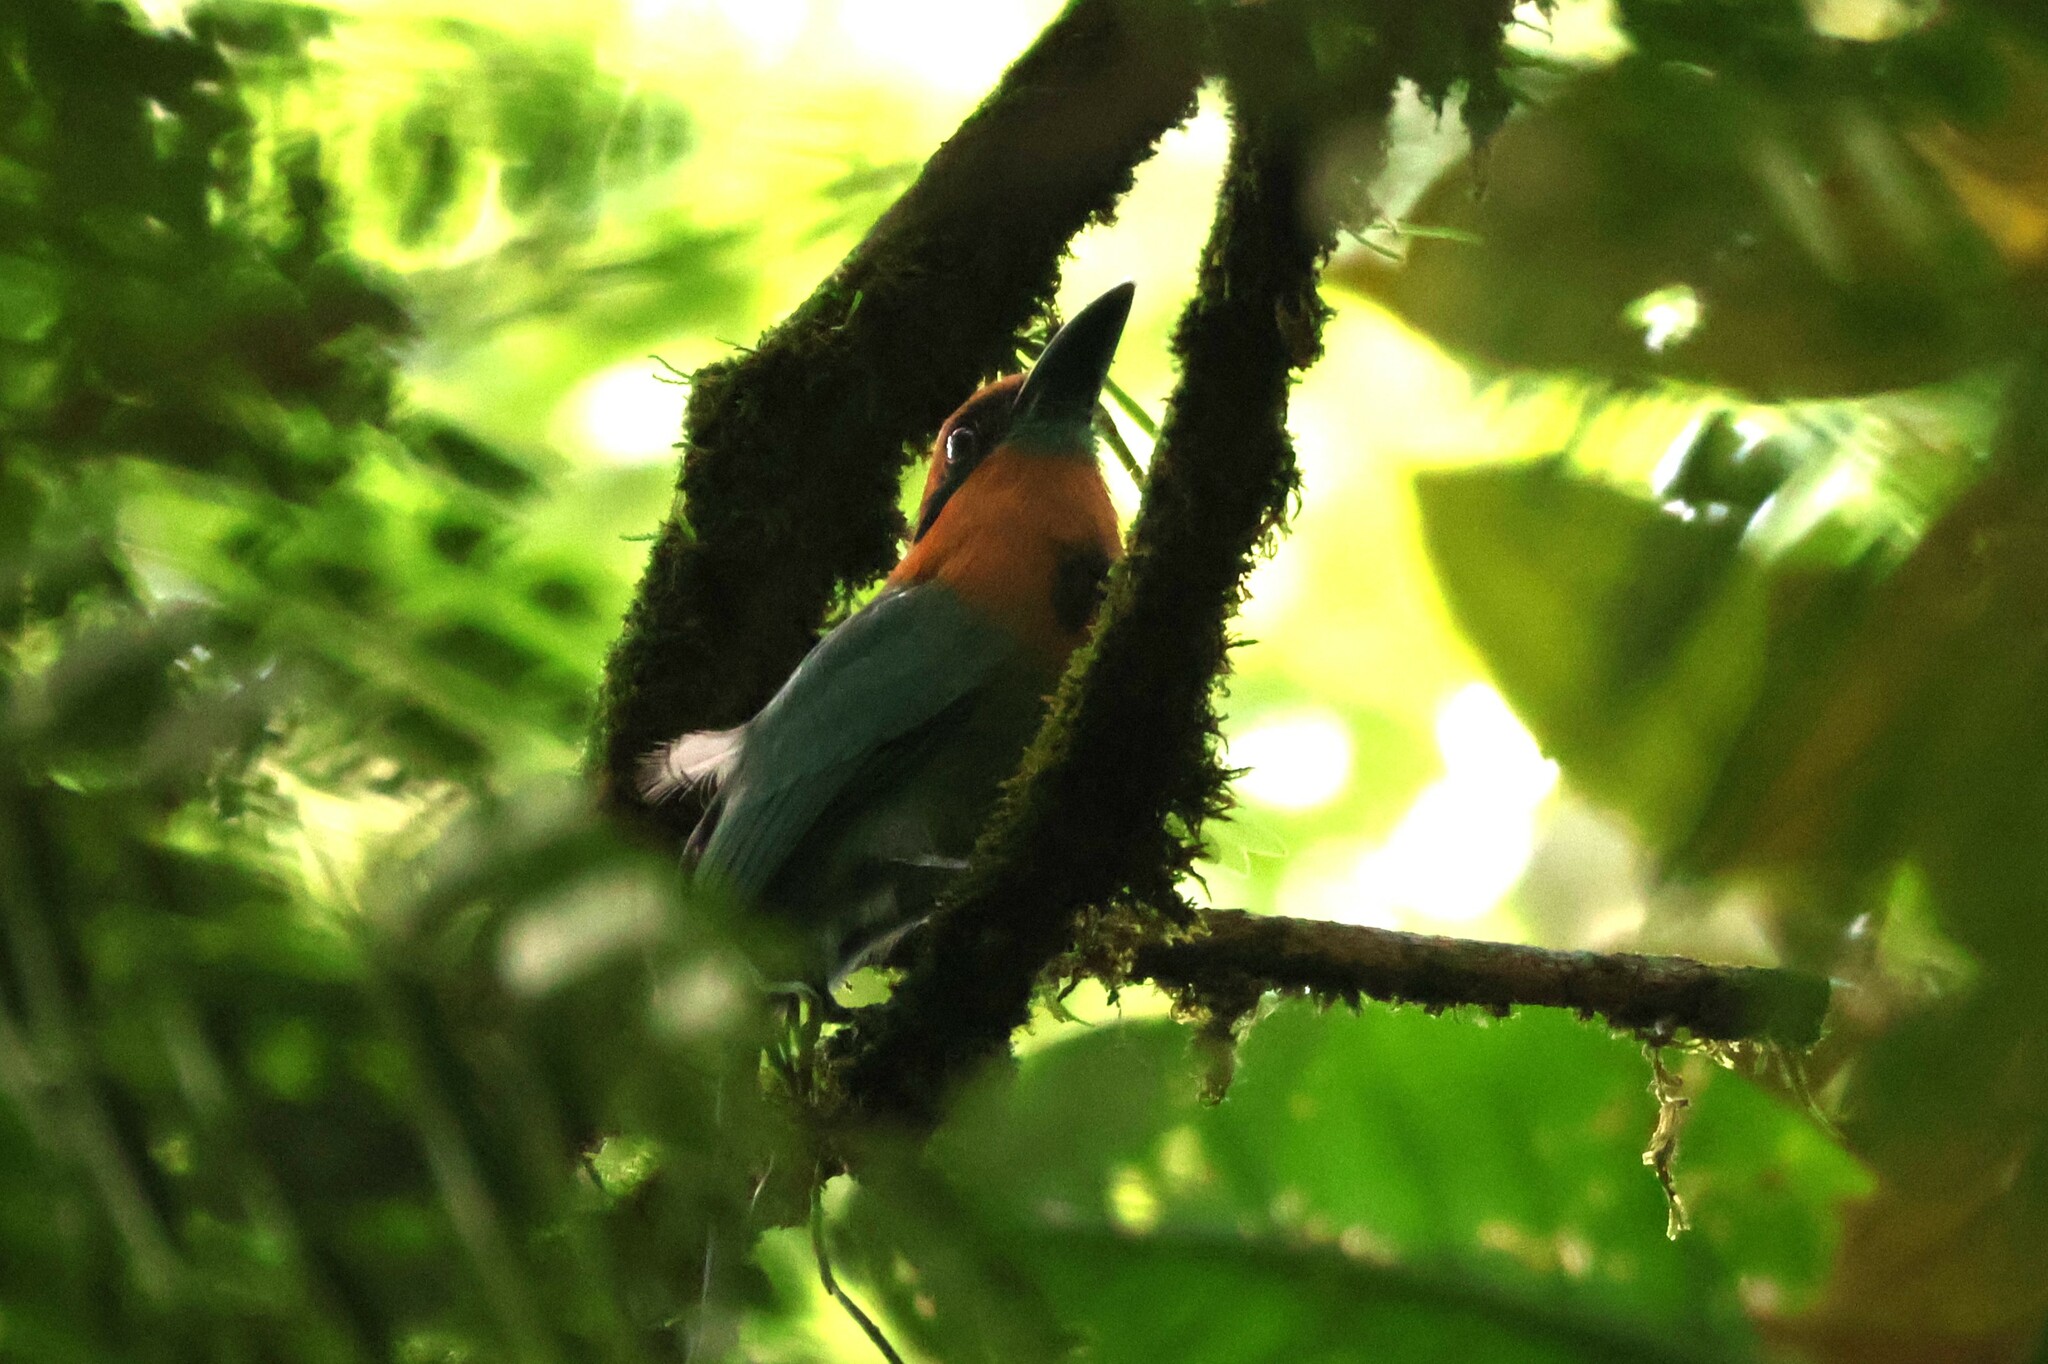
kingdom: Animalia
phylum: Chordata
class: Aves
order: Coraciiformes
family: Momotidae
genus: Electron
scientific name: Electron platyrhynchum
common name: Broad-billed motmot
